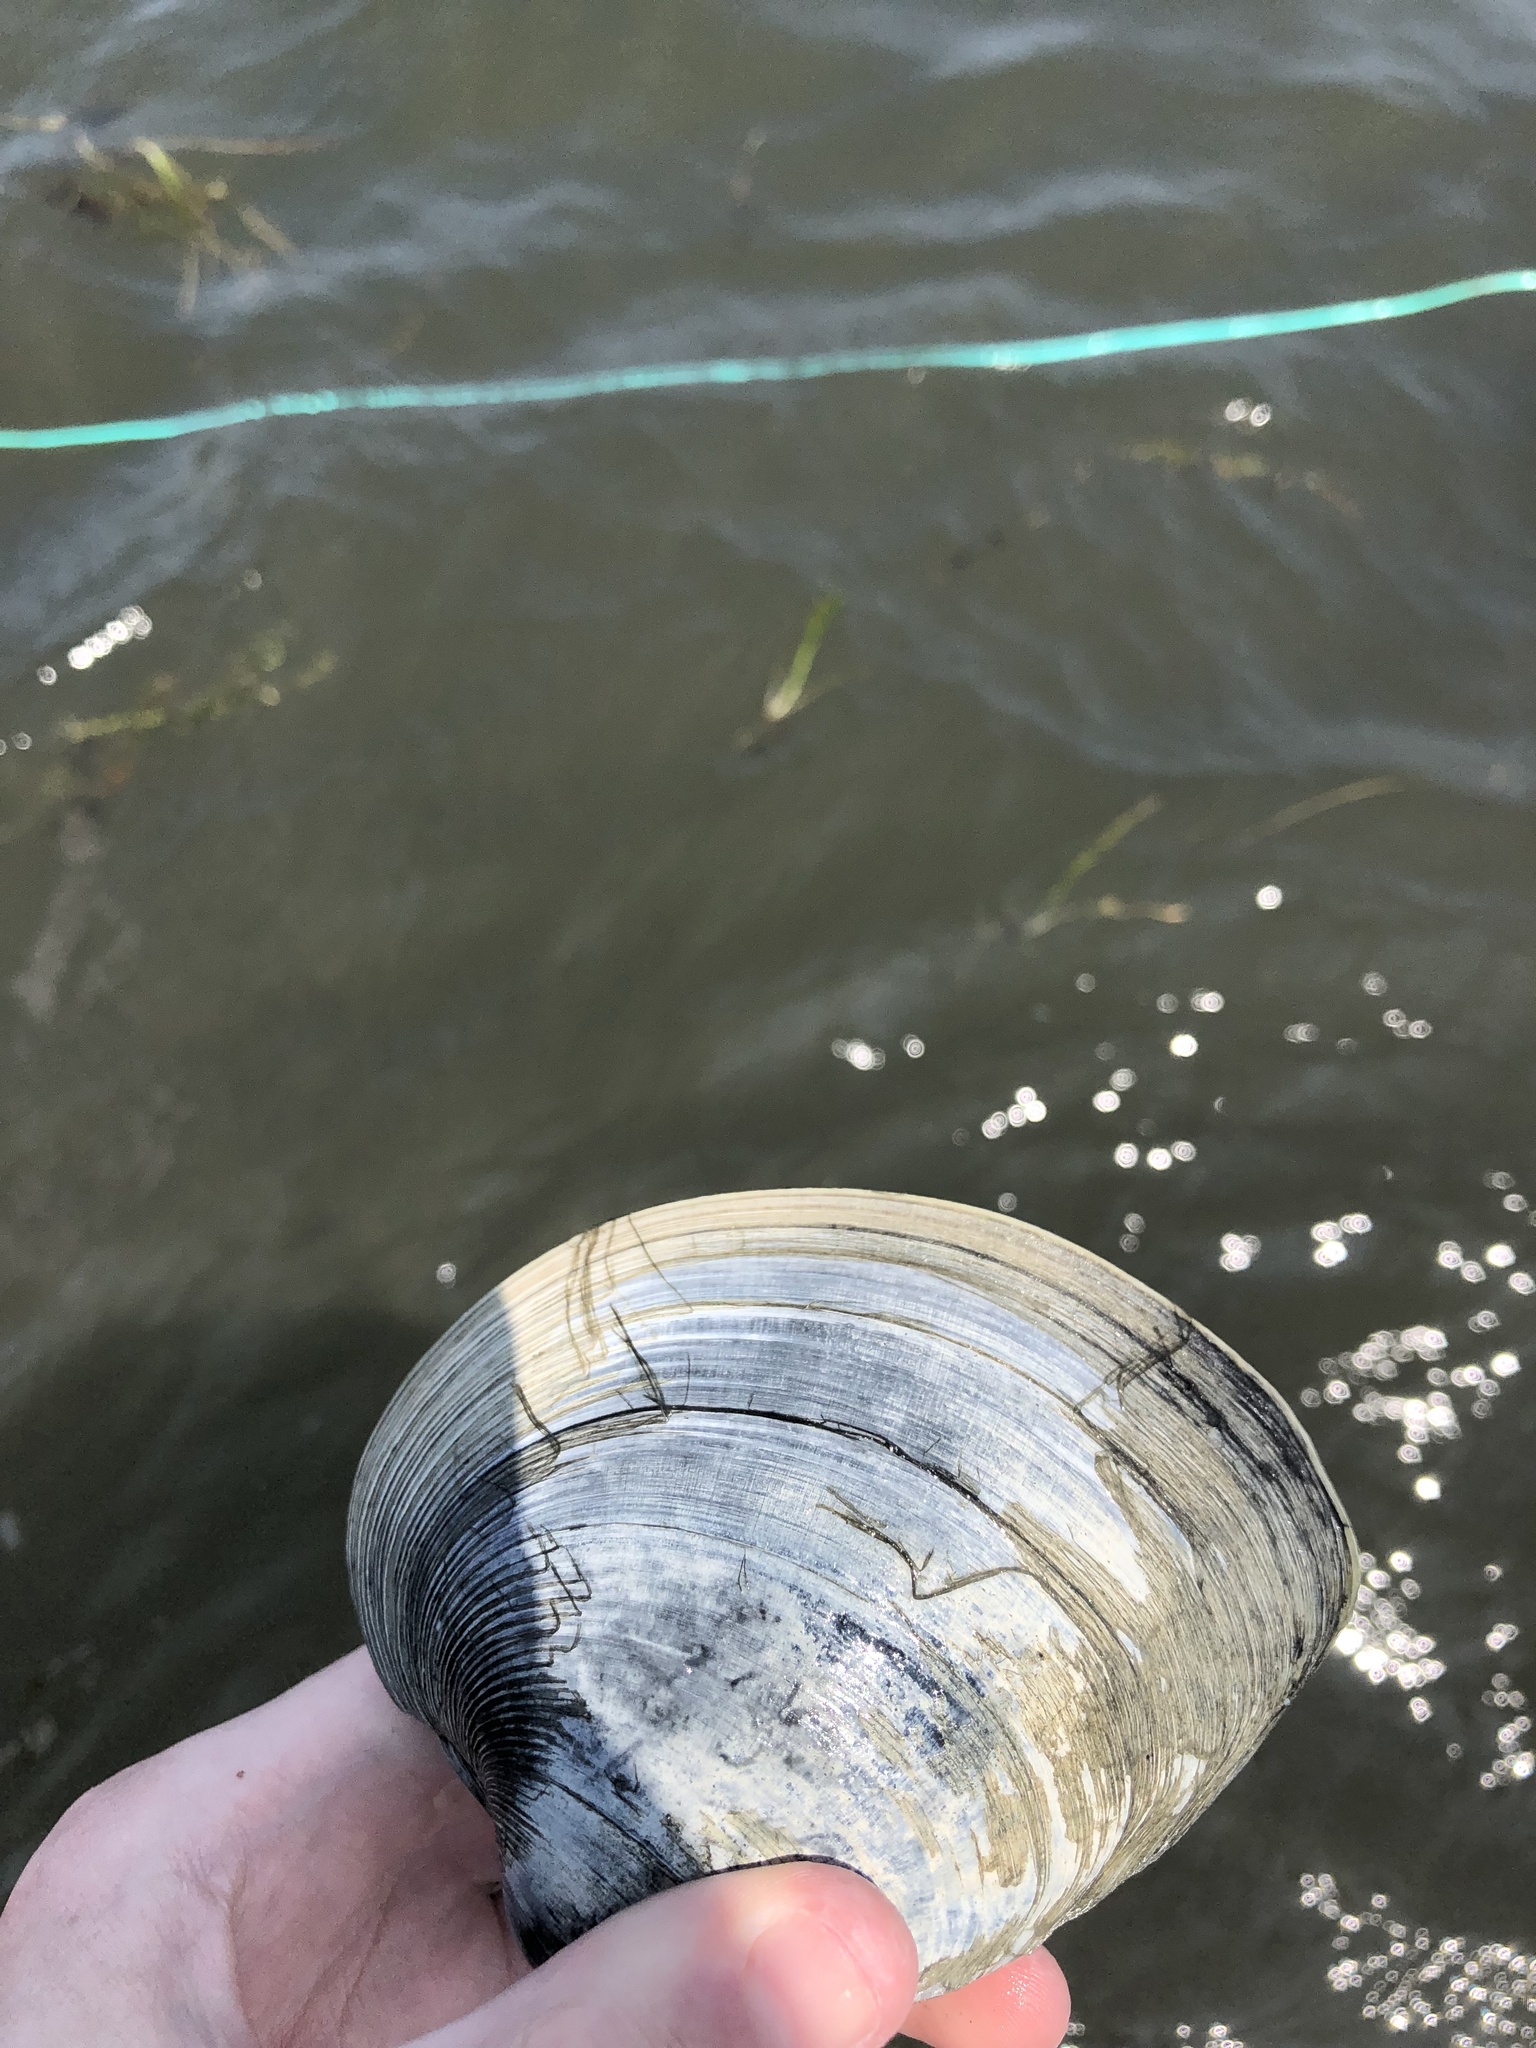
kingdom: Animalia
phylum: Mollusca
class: Bivalvia
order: Venerida
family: Veneridae
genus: Mercenaria
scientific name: Mercenaria mercenaria
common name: American hard-shelled clam
